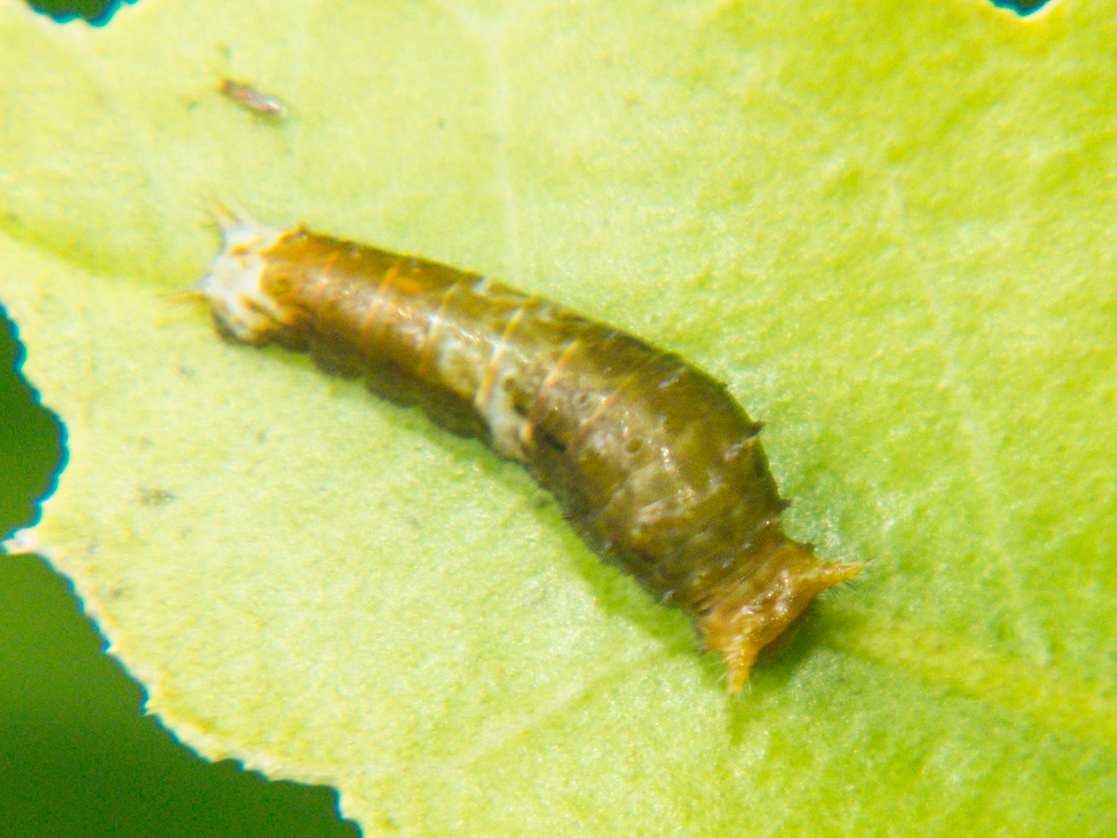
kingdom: Animalia
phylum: Arthropoda
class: Insecta
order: Lepidoptera
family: Papilionidae
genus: Papilio
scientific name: Papilio polytes
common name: Common mormon
